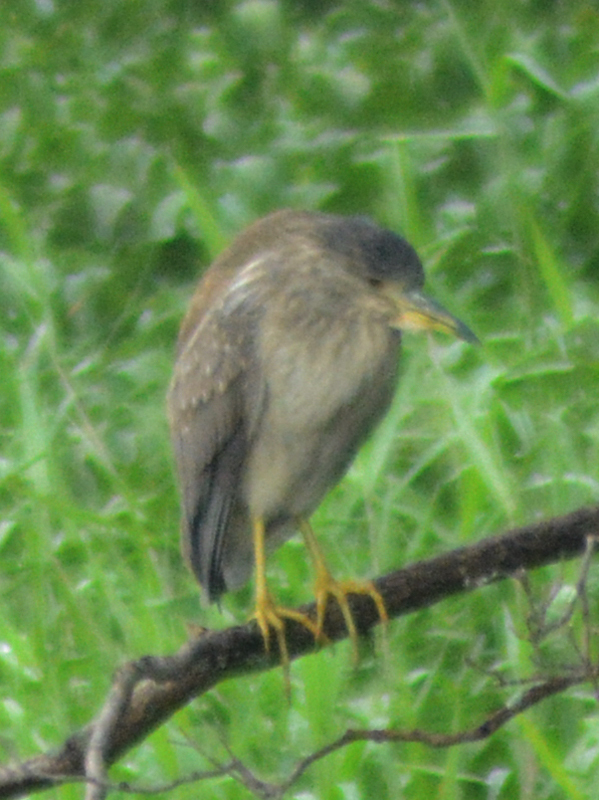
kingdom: Animalia
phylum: Chordata
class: Aves
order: Pelecaniformes
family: Ardeidae
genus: Nycticorax
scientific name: Nycticorax nycticorax
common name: Black-crowned night heron
